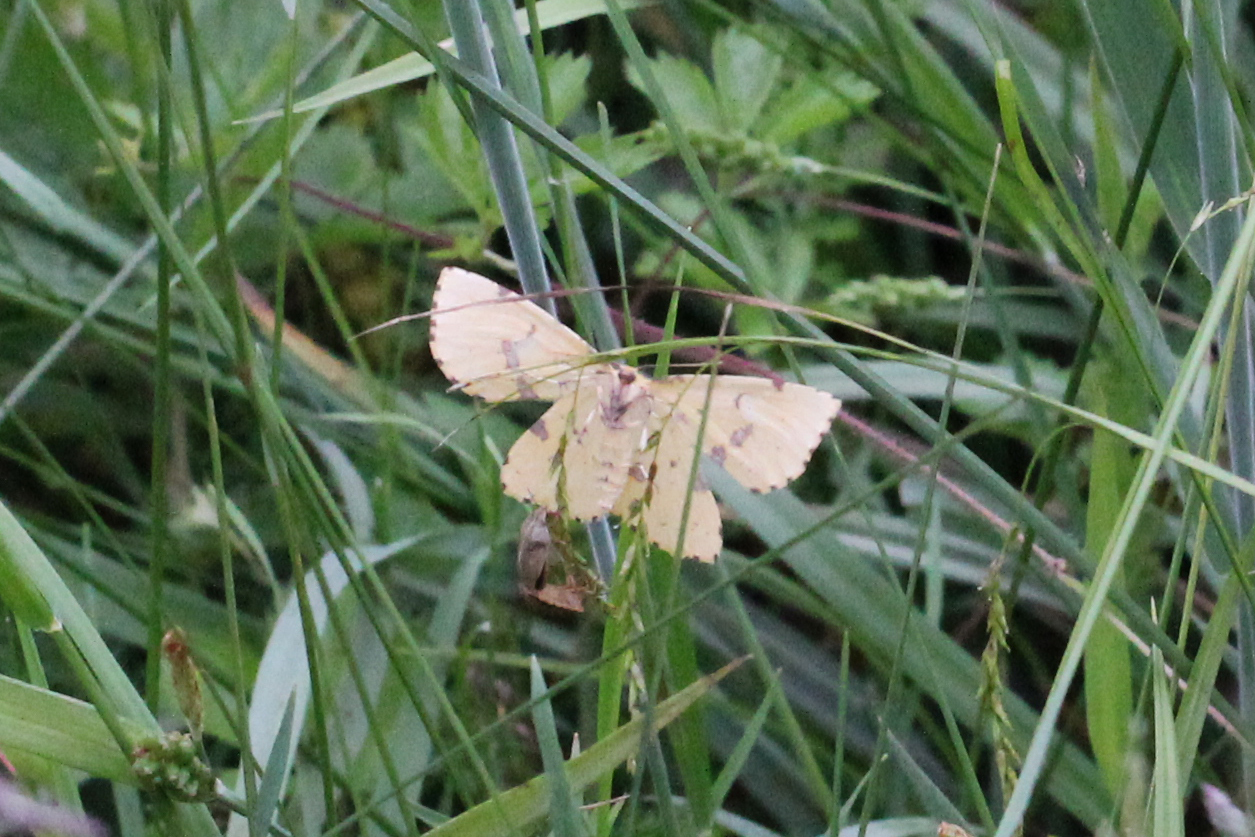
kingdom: Animalia
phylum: Arthropoda
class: Insecta
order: Lepidoptera
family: Geometridae
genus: Xanthotype
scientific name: Xanthotype
